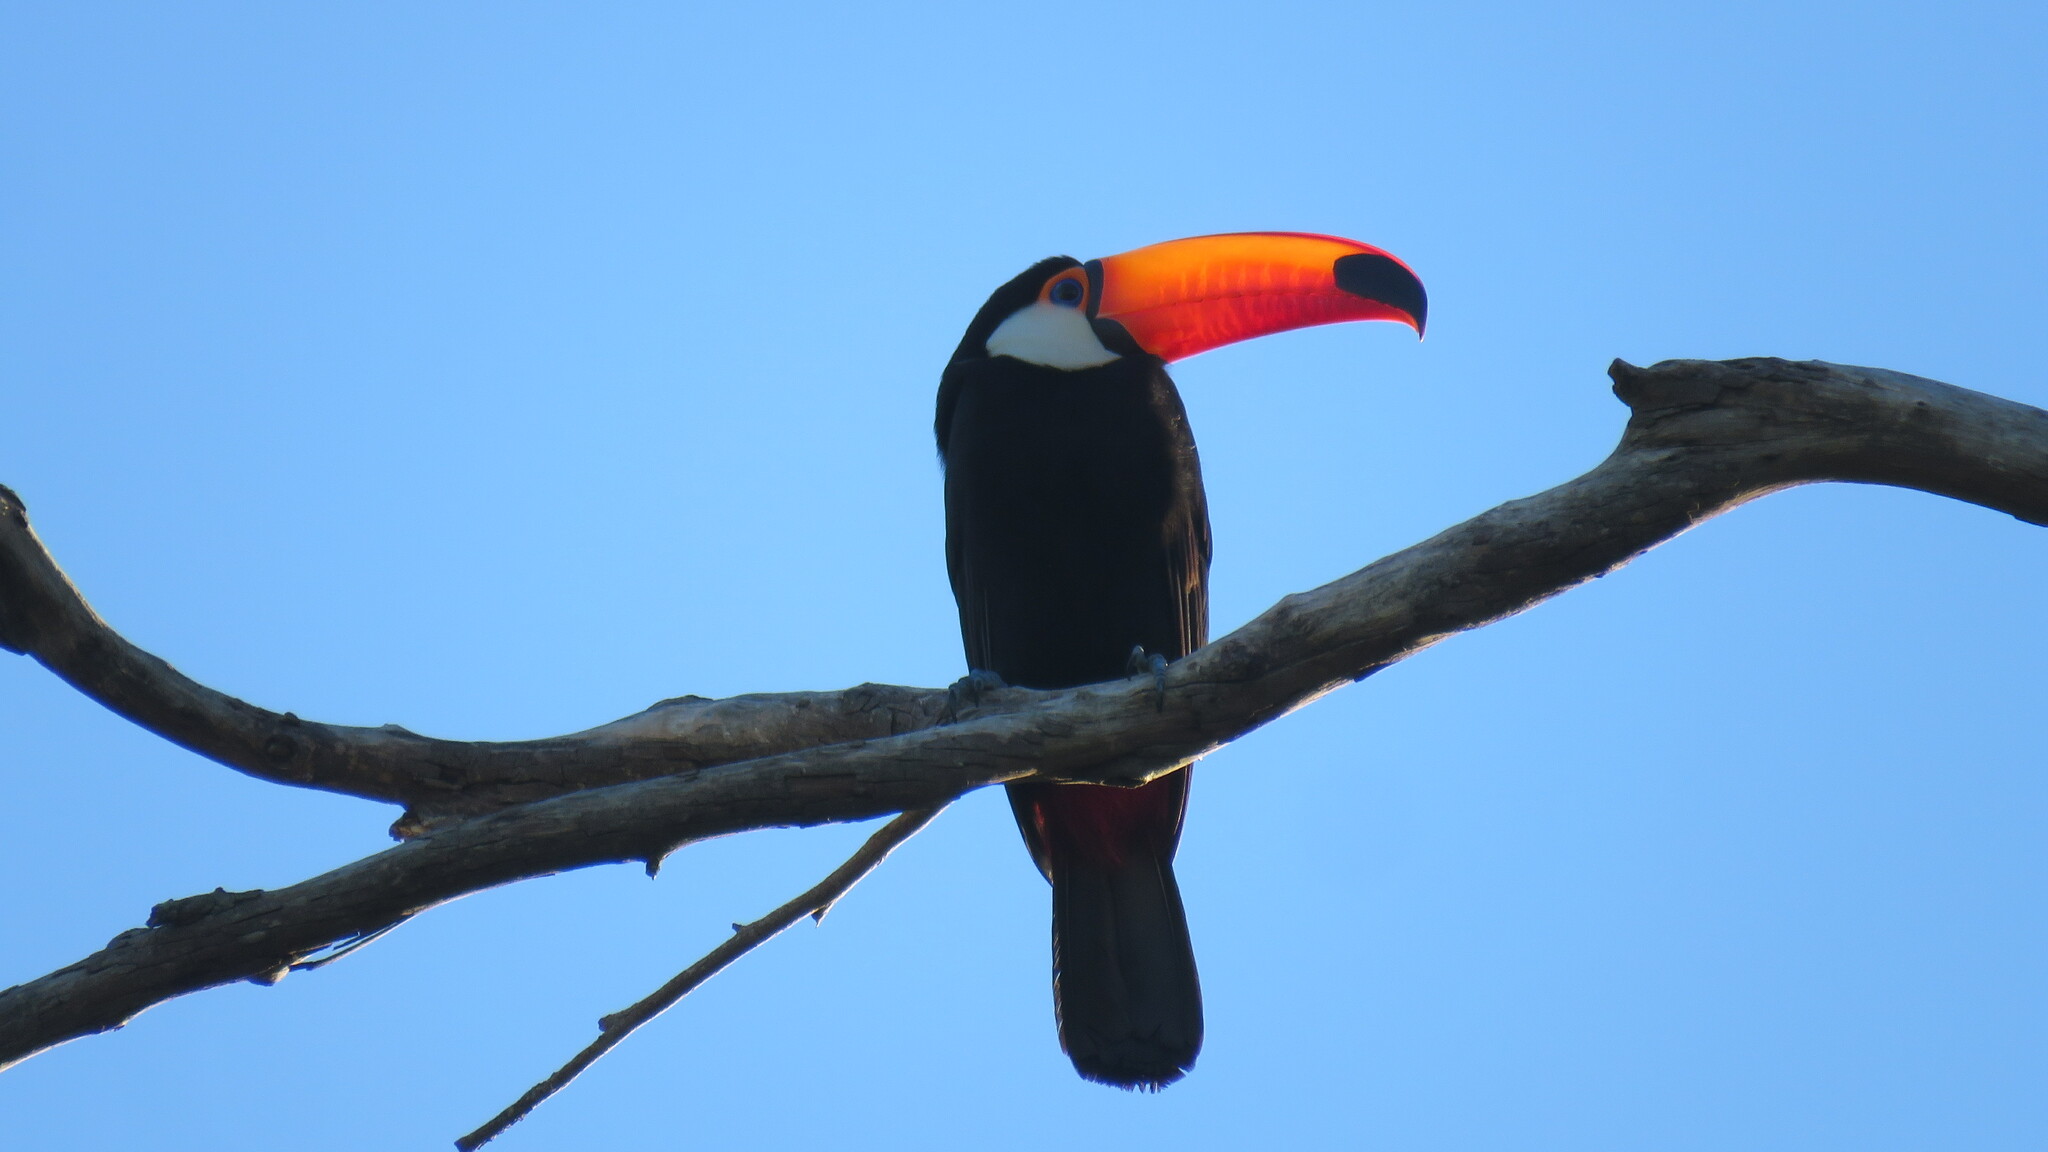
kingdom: Animalia
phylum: Chordata
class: Aves
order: Piciformes
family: Ramphastidae
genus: Ramphastos
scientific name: Ramphastos toco
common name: Toco toucan
